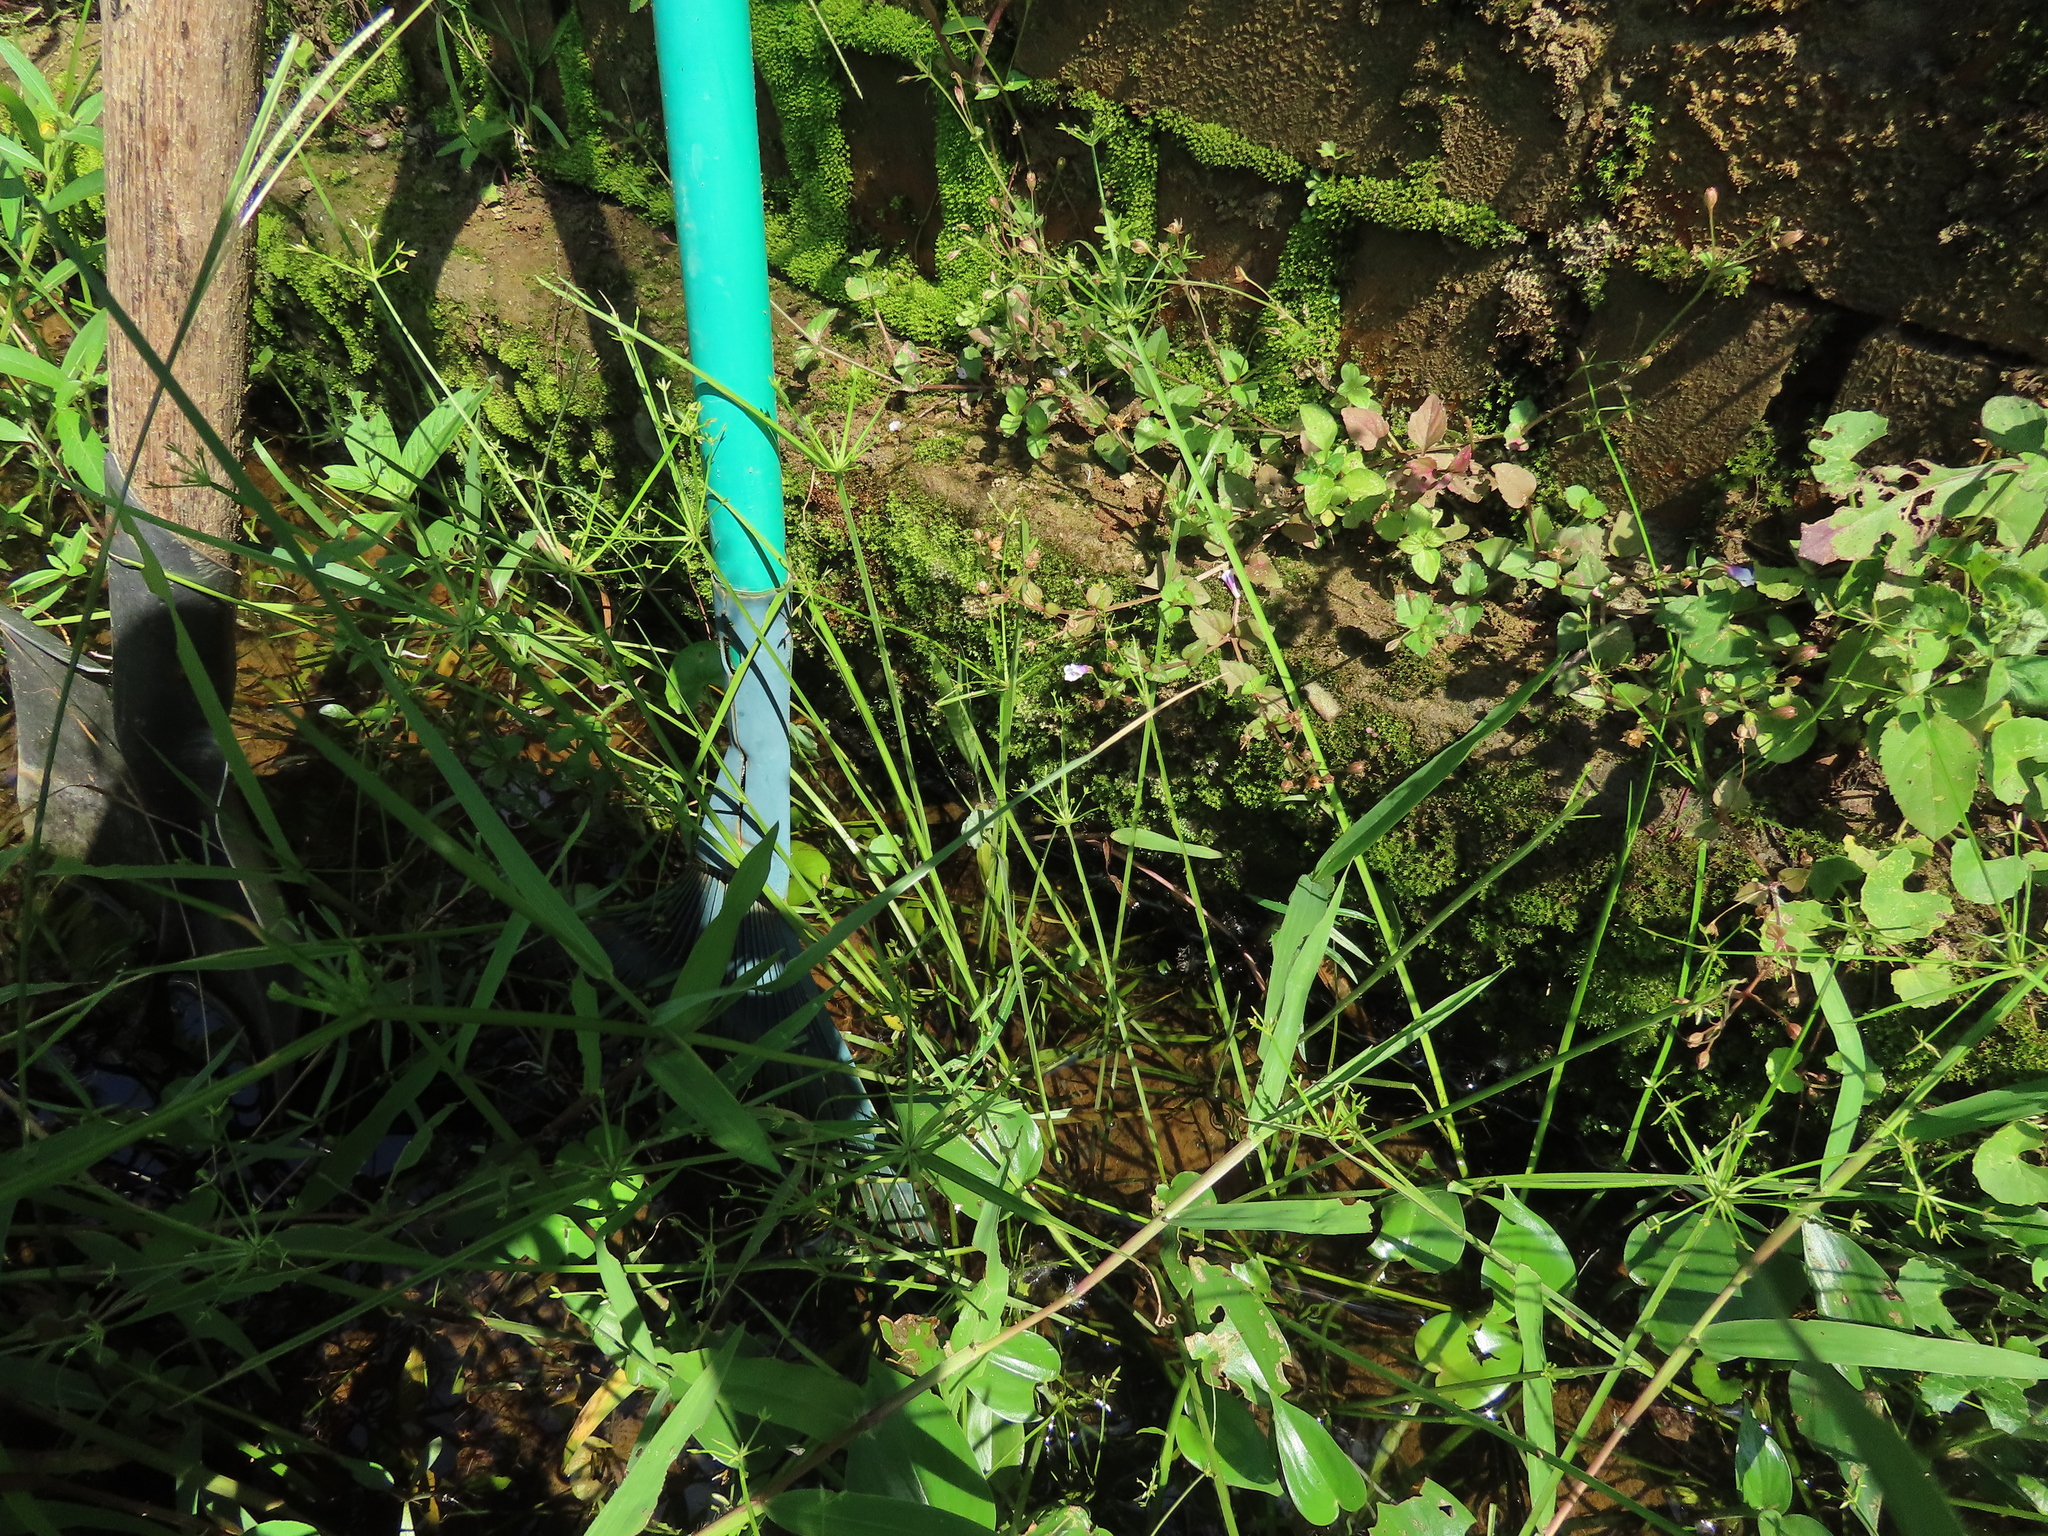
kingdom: Plantae
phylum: Tracheophyta
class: Liliopsida
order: Poales
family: Cyperaceae
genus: Cyperus
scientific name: Cyperus haspan
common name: Haspan flatsedge
